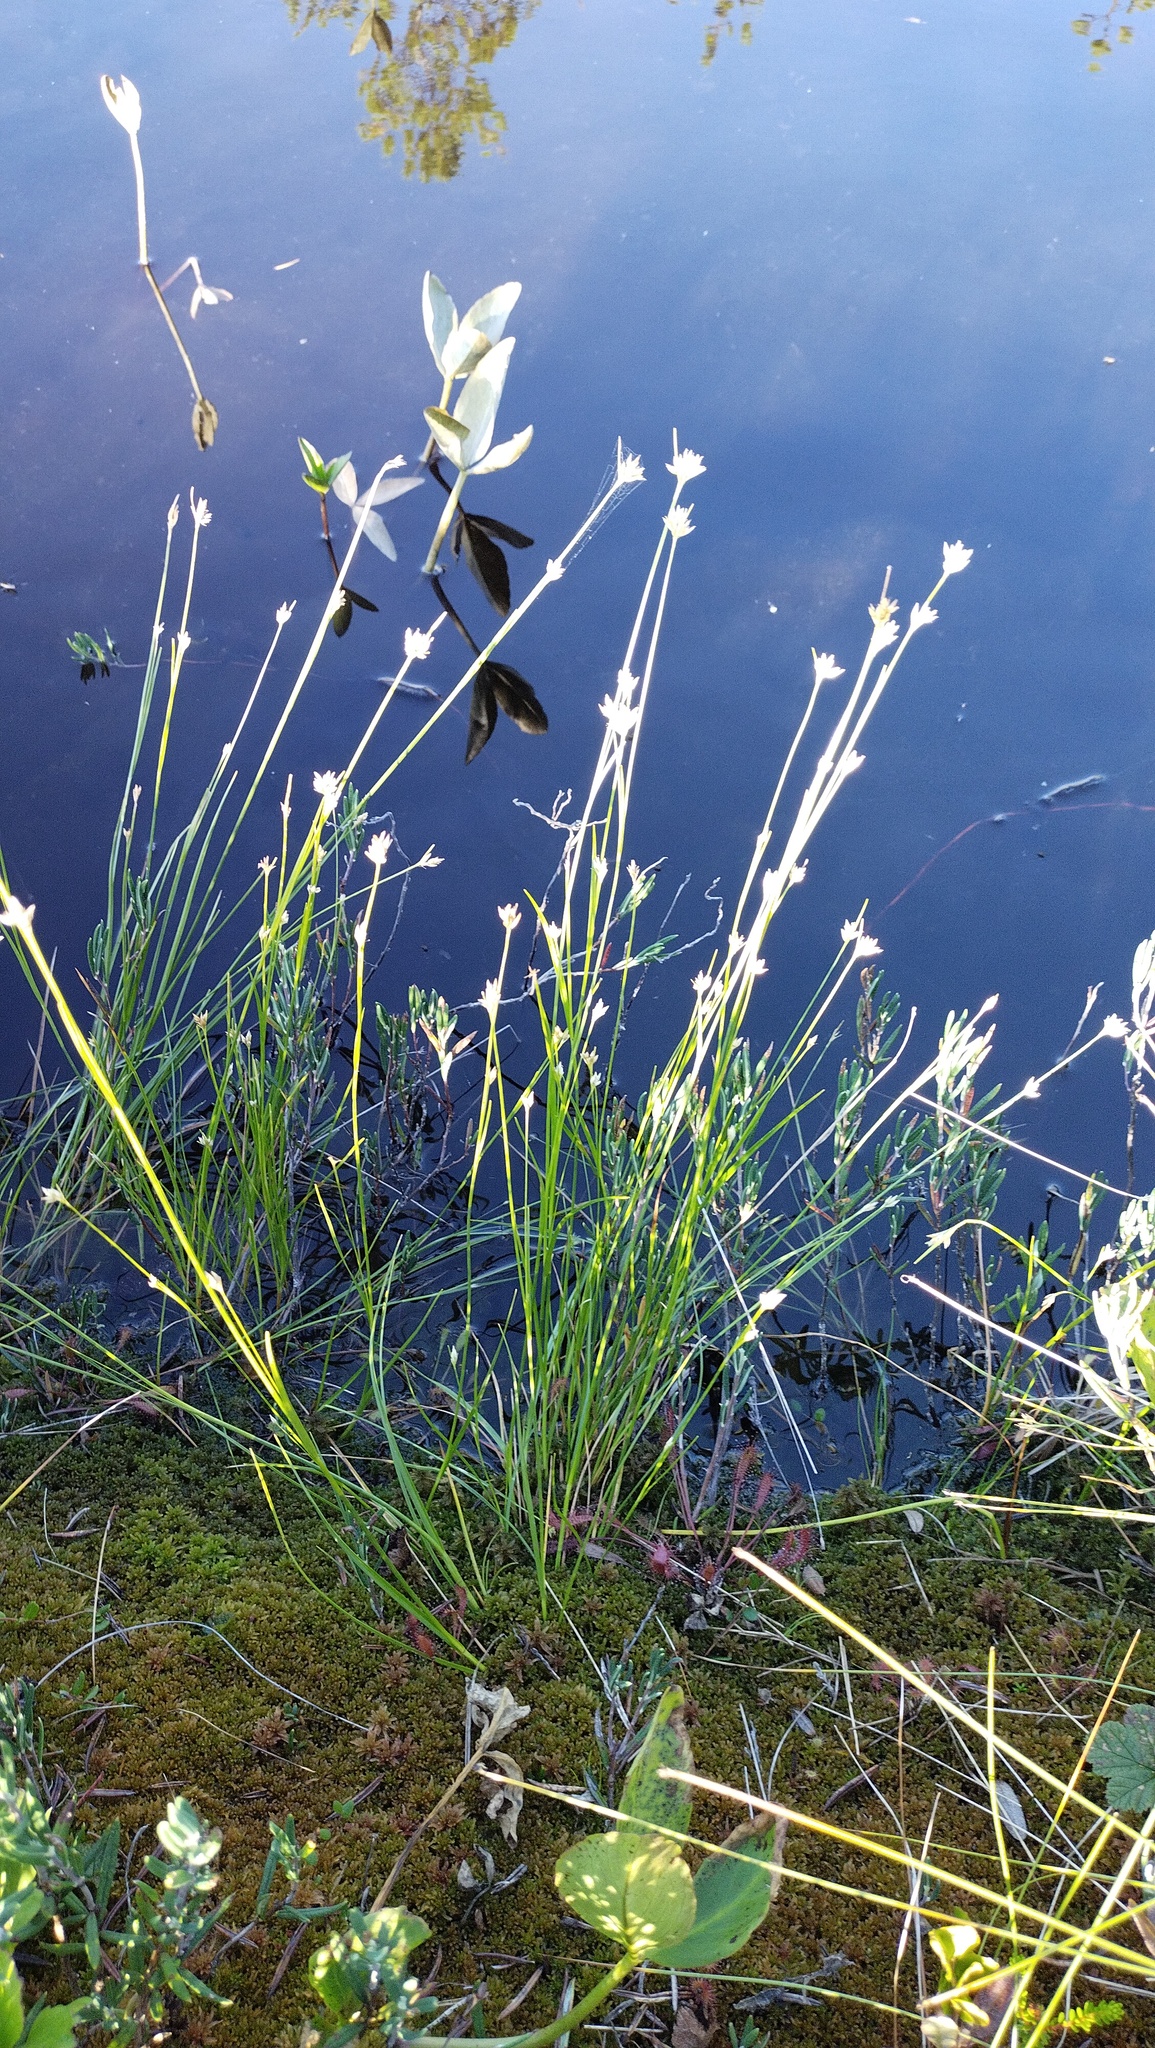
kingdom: Plantae
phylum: Tracheophyta
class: Liliopsida
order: Poales
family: Cyperaceae
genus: Rhynchospora
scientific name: Rhynchospora alba
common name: White beak-sedge
